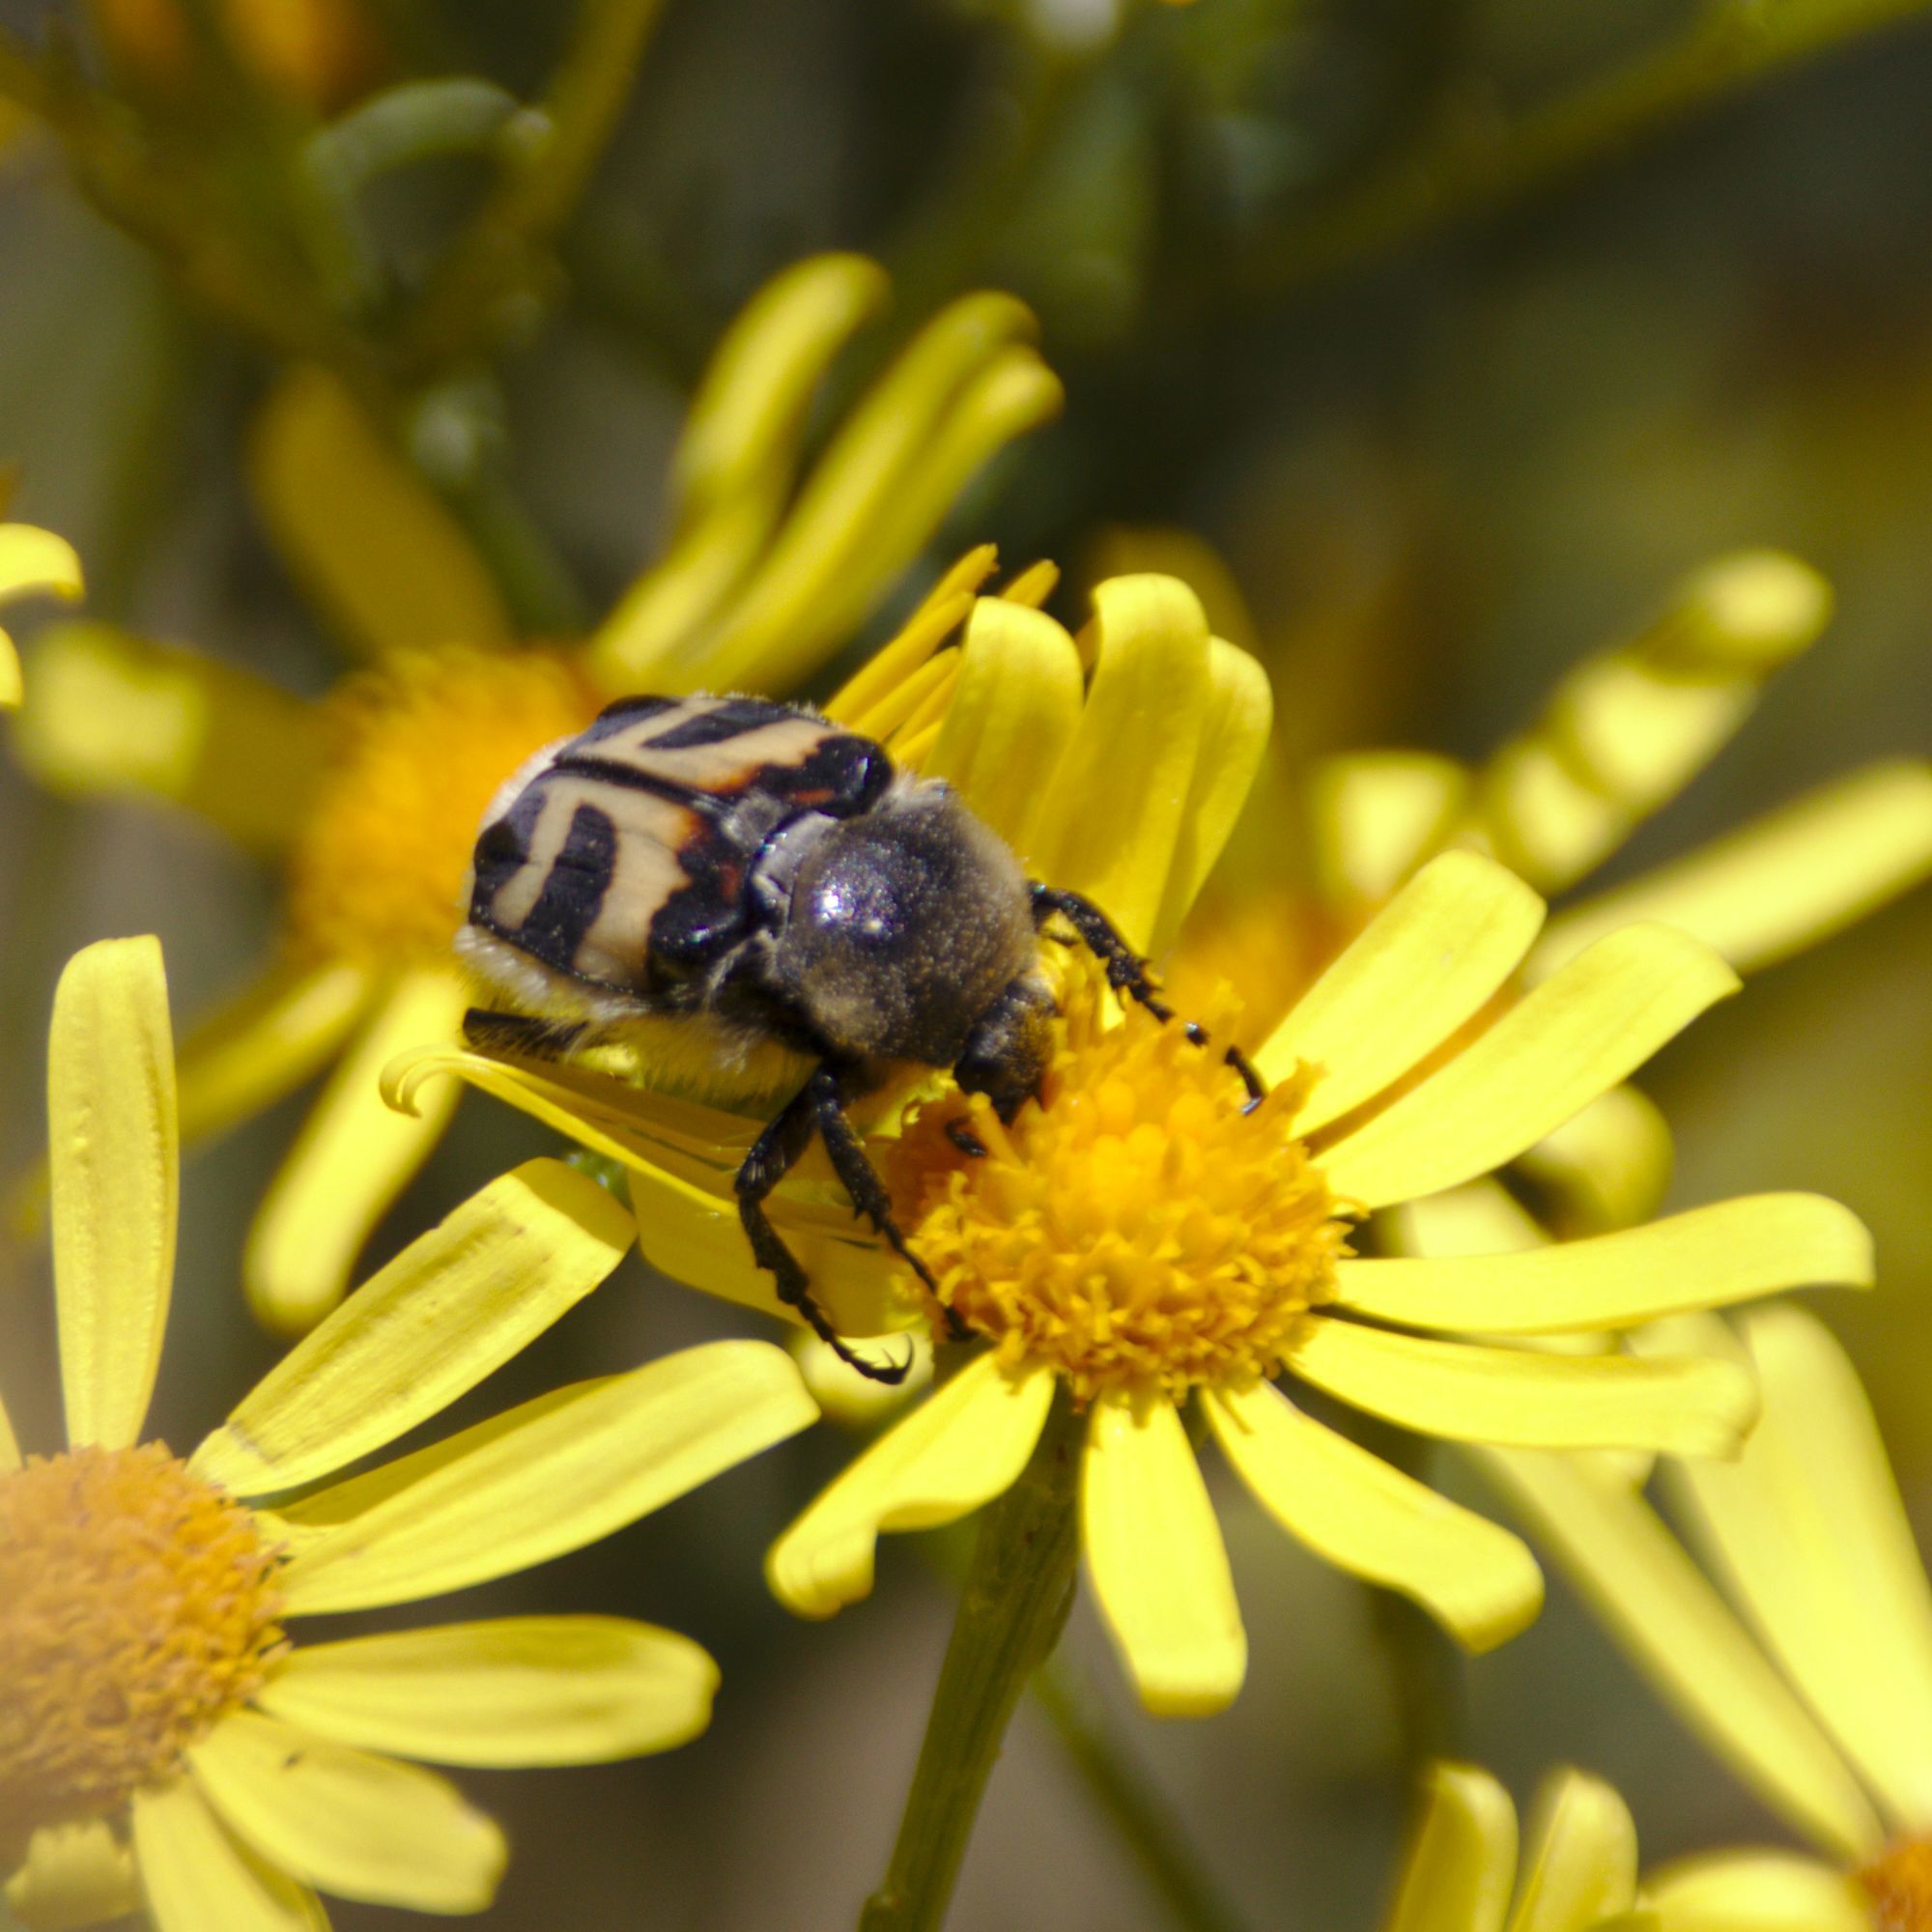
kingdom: Animalia
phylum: Arthropoda
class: Insecta
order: Coleoptera
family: Scarabaeidae
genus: Trichius
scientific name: Trichius fasciatus
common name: Bee beetle
